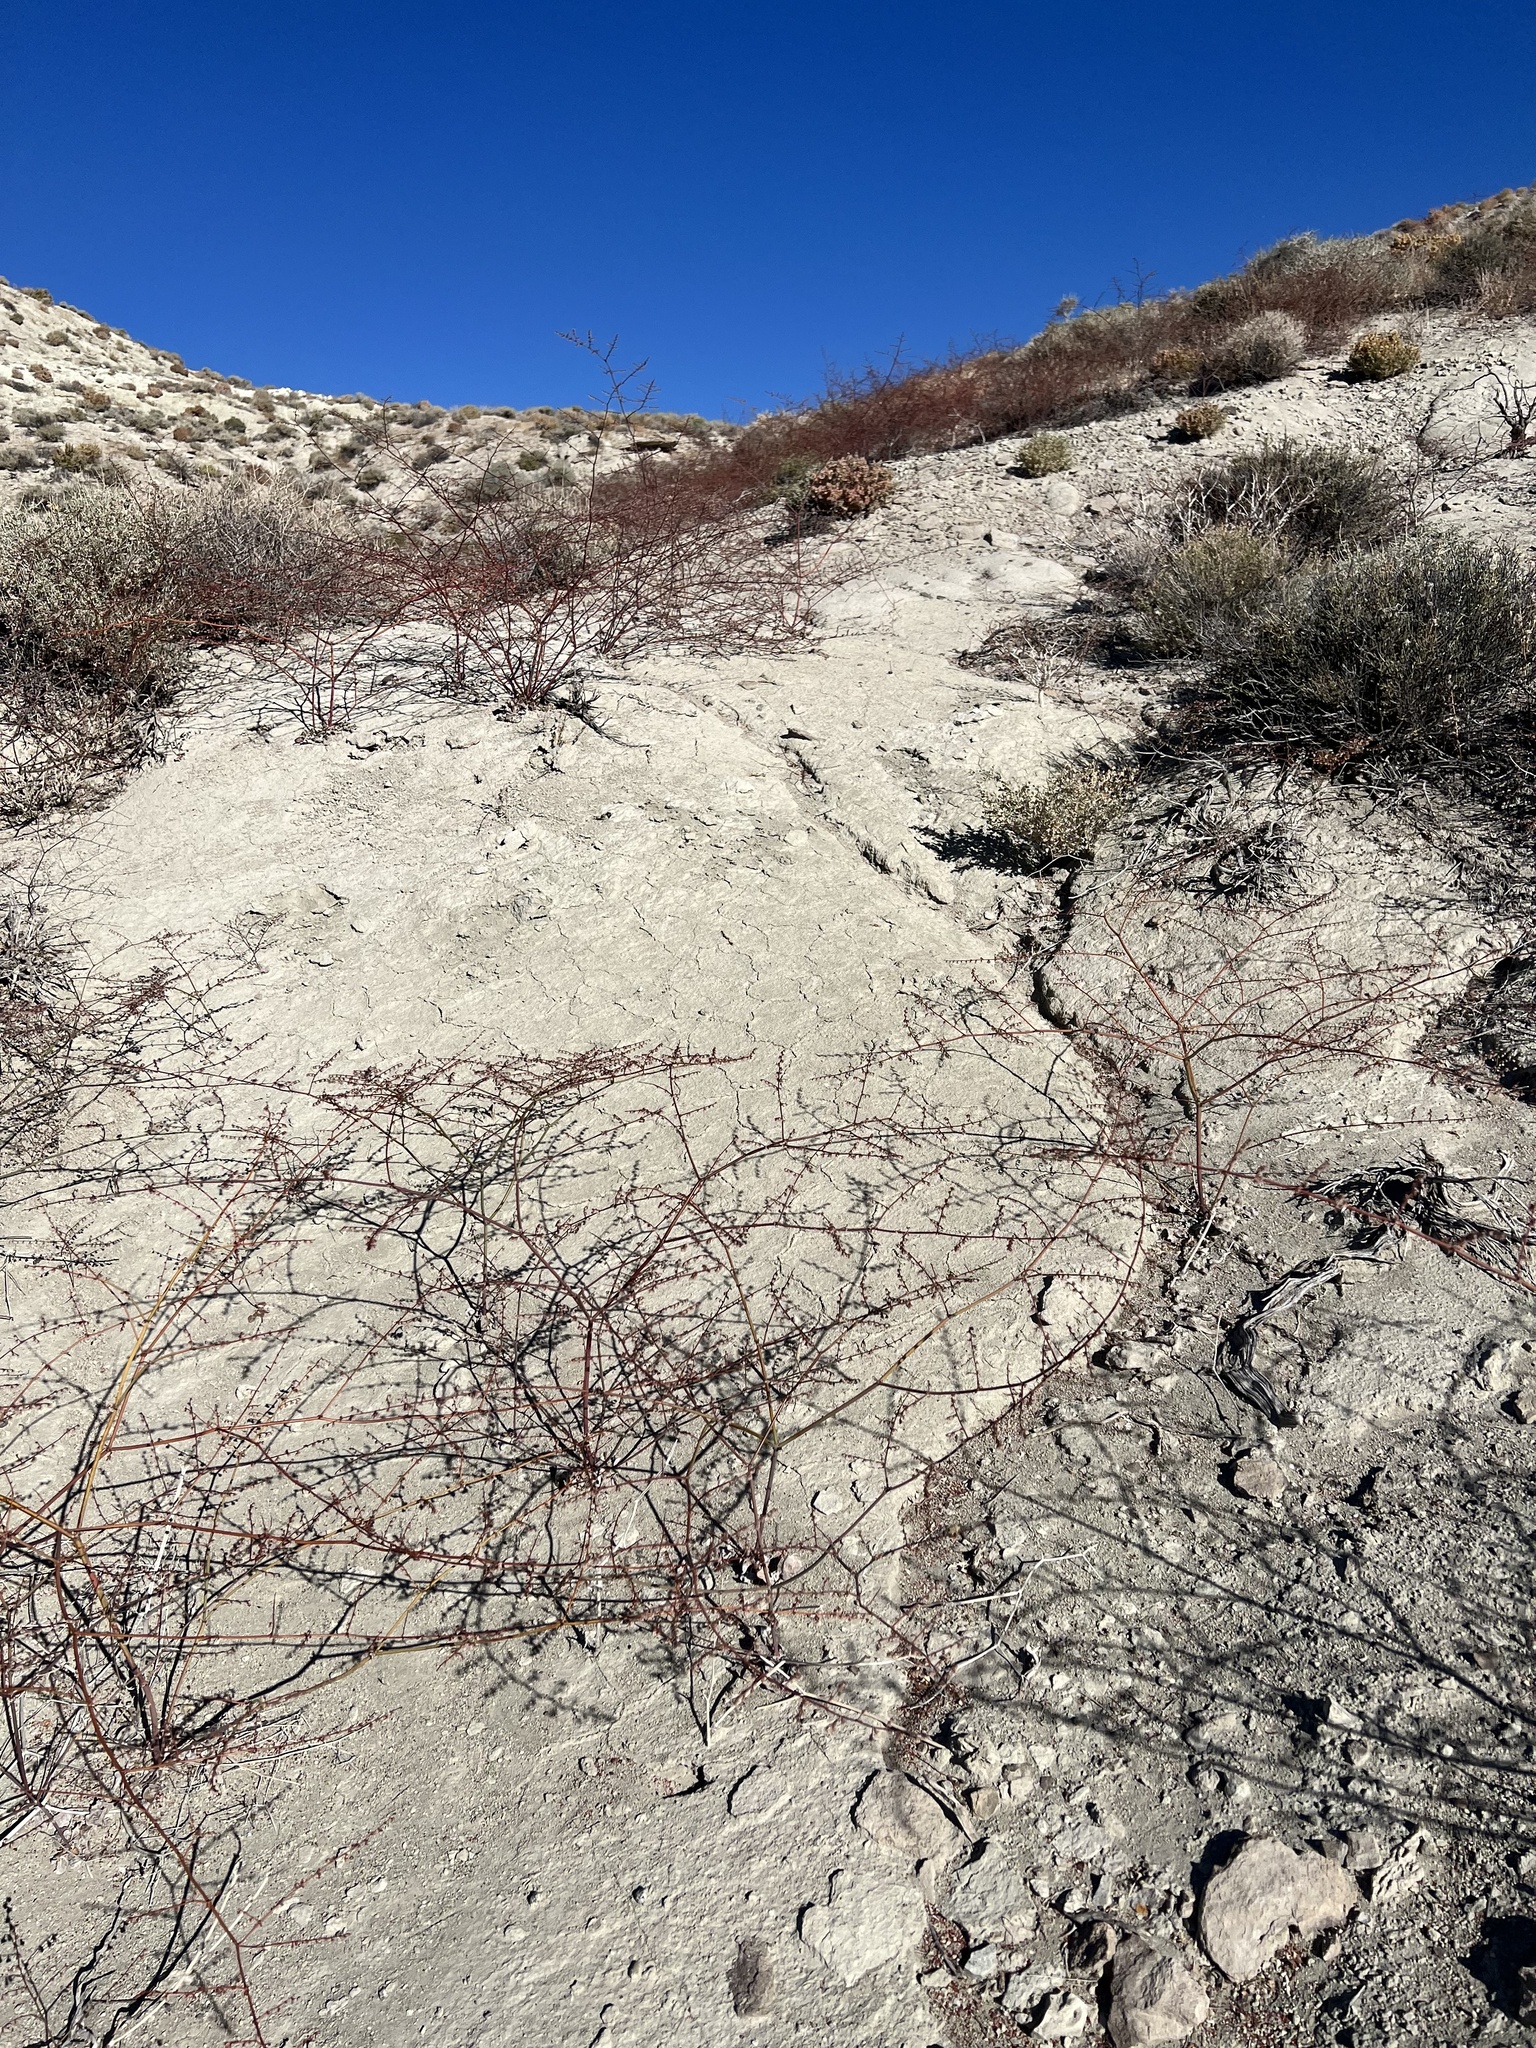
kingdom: Plantae
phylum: Tracheophyta
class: Magnoliopsida
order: Caryophyllales
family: Polygonaceae
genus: Eriogonum
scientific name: Eriogonum deflexum
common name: Skeleton-weed
